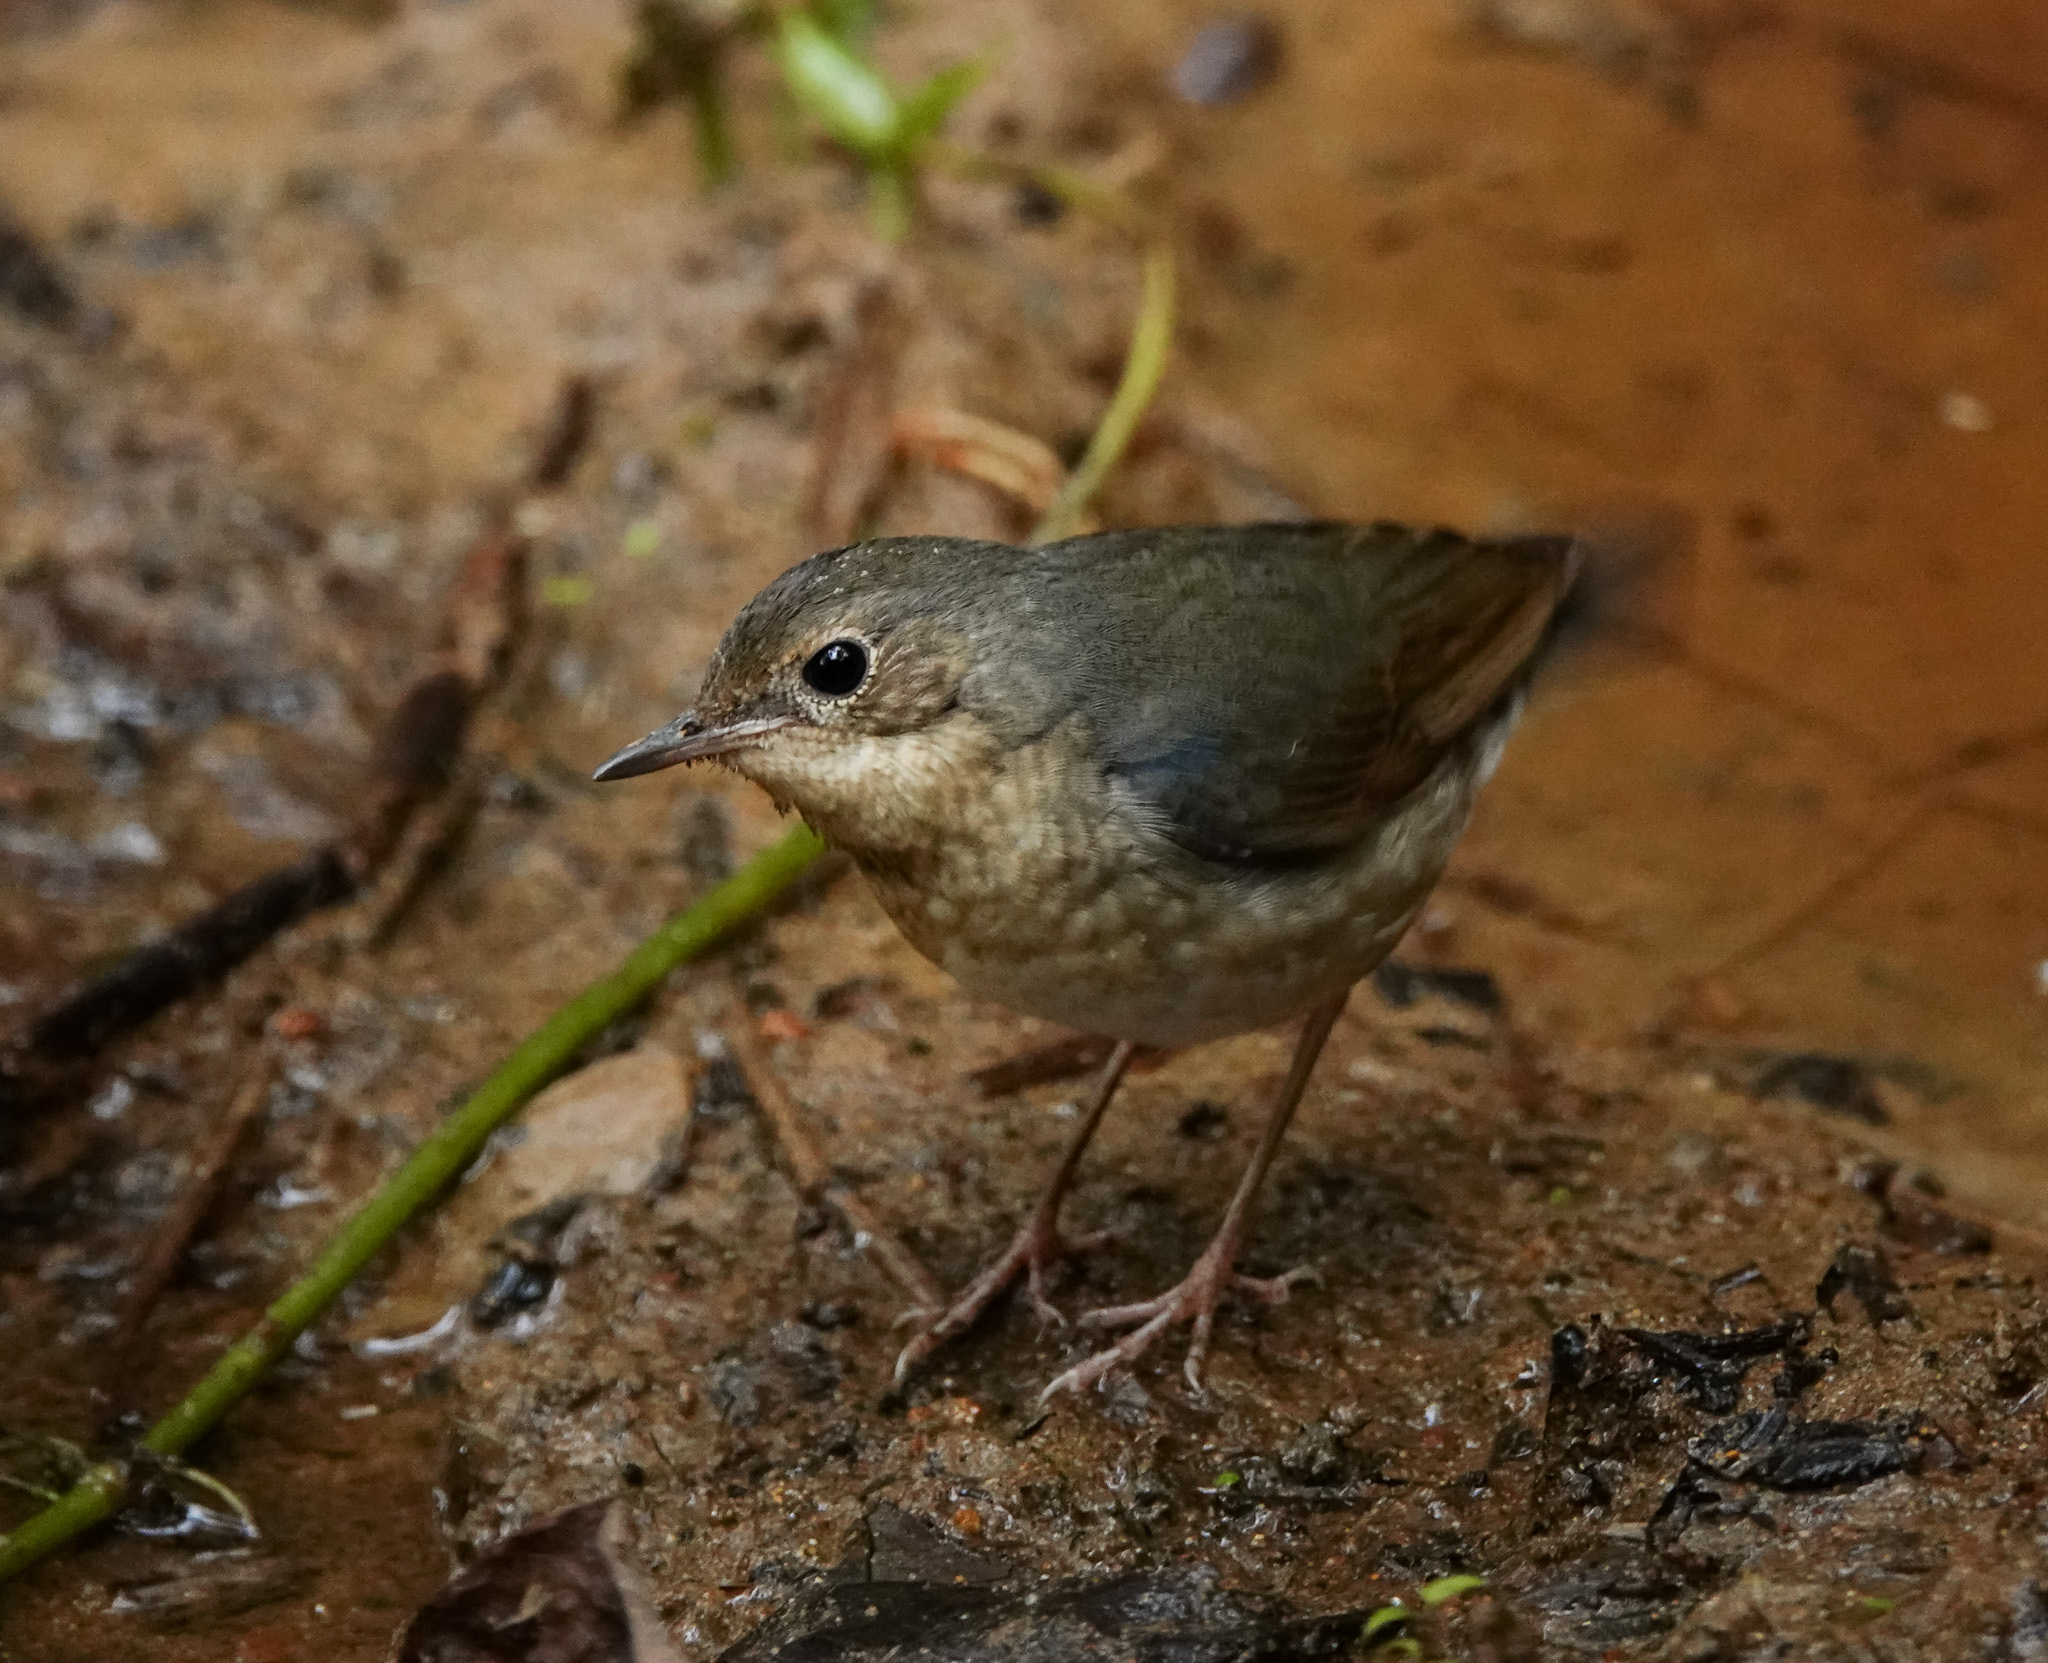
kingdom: Animalia
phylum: Chordata
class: Aves
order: Passeriformes
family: Muscicapidae
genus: Luscinia
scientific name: Luscinia cyane
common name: Siberian blue robin
